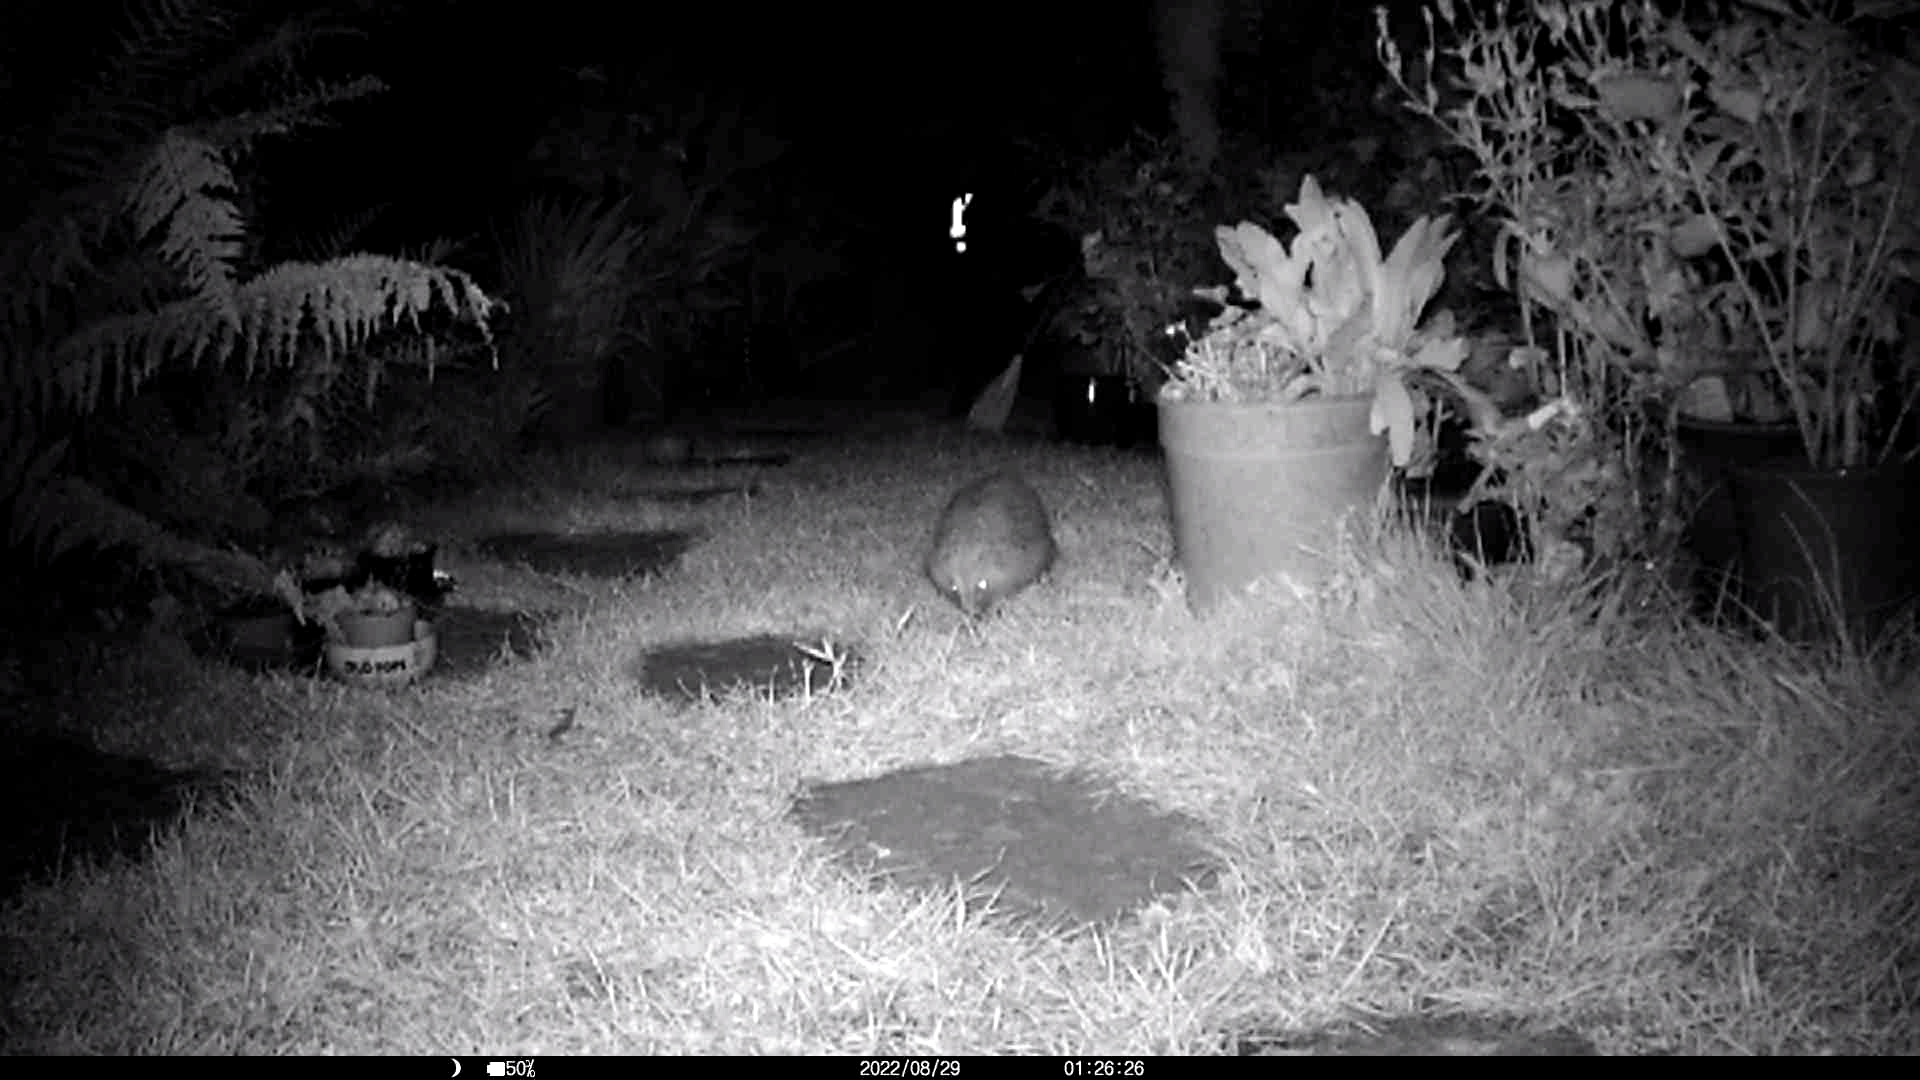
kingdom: Animalia
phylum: Chordata
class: Mammalia
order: Erinaceomorpha
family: Erinaceidae
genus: Erinaceus
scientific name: Erinaceus europaeus
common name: West european hedgehog
